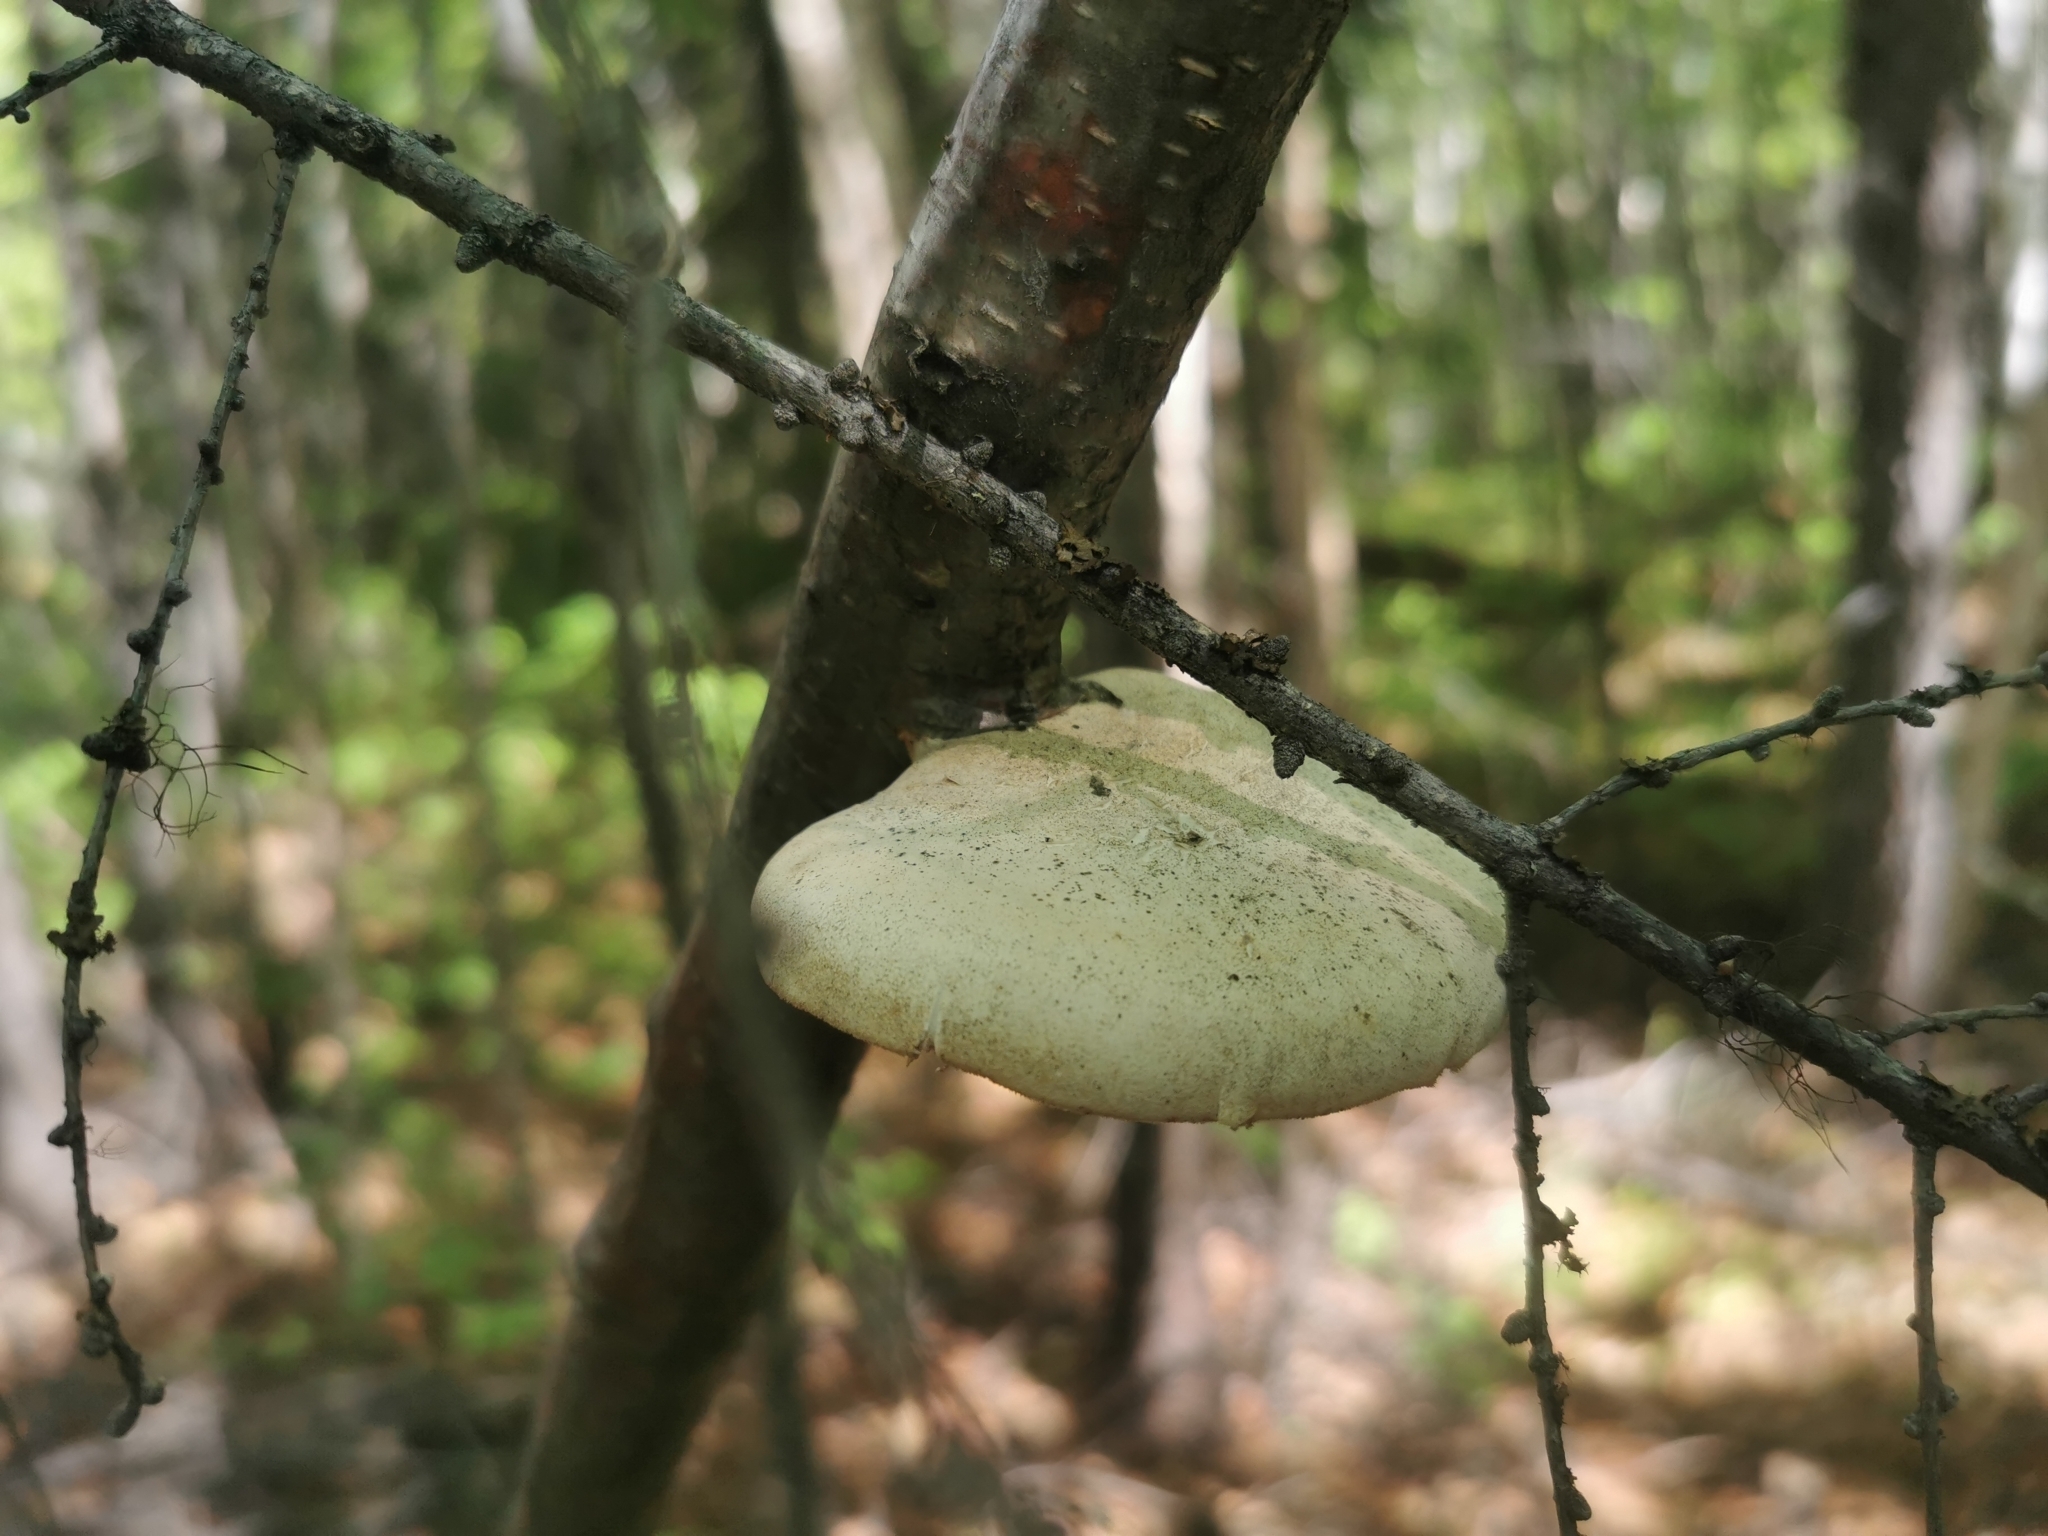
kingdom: Fungi
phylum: Basidiomycota
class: Agaricomycetes
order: Polyporales
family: Fomitopsidaceae
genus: Fomitopsis
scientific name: Fomitopsis betulina
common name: Birch polypore
